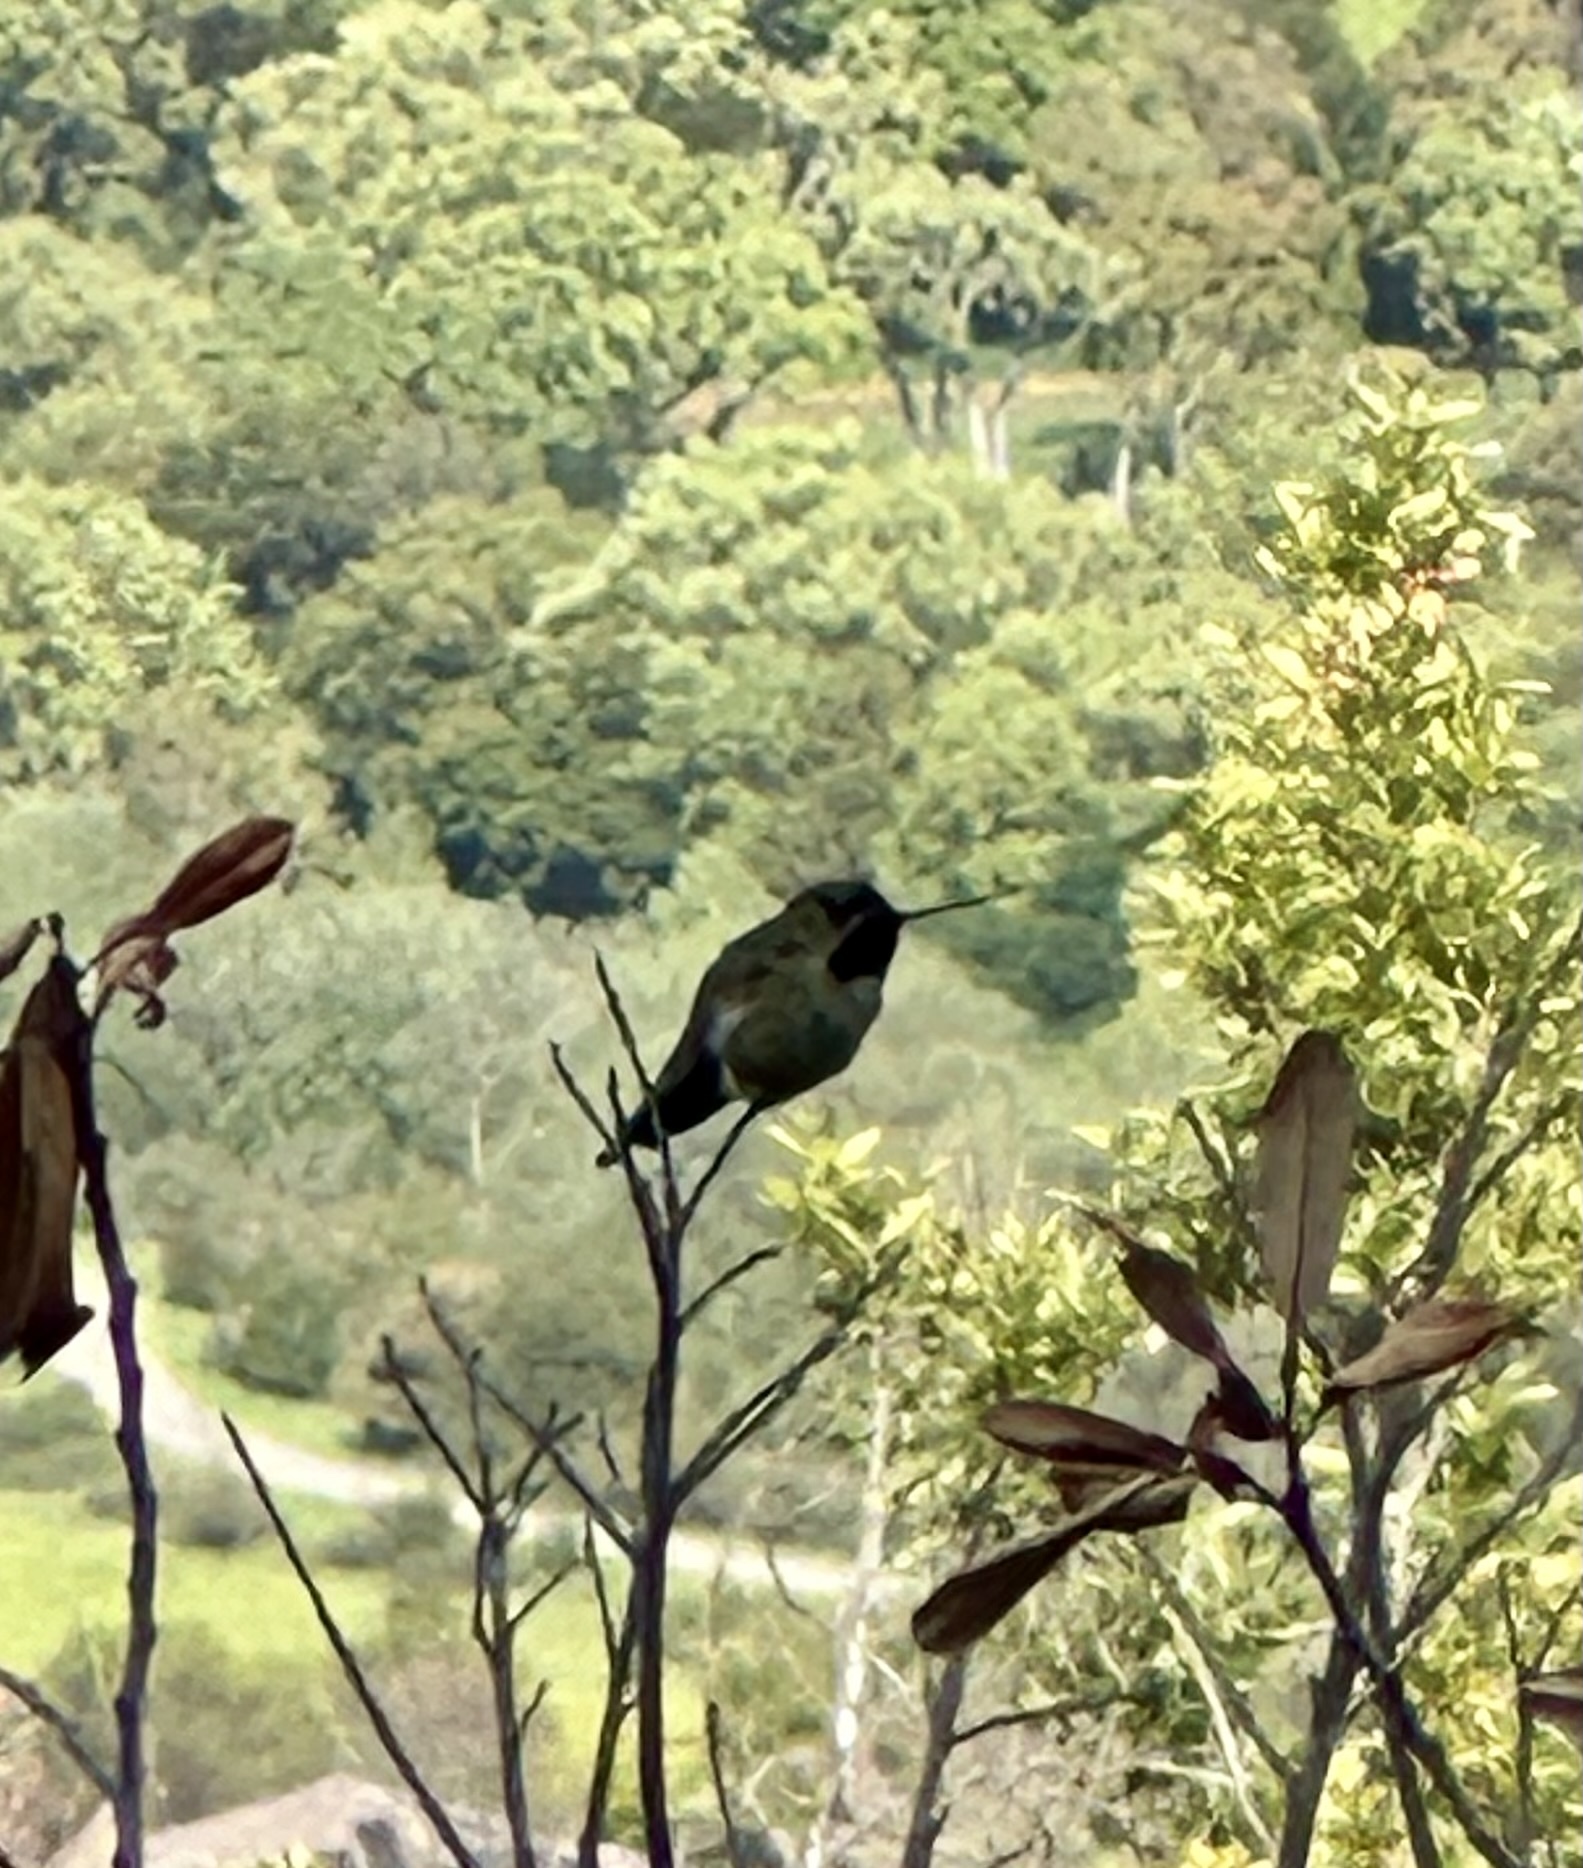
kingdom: Animalia
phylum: Chordata
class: Aves
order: Apodiformes
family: Trochilidae
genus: Calypte
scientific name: Calypte anna
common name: Anna's hummingbird
